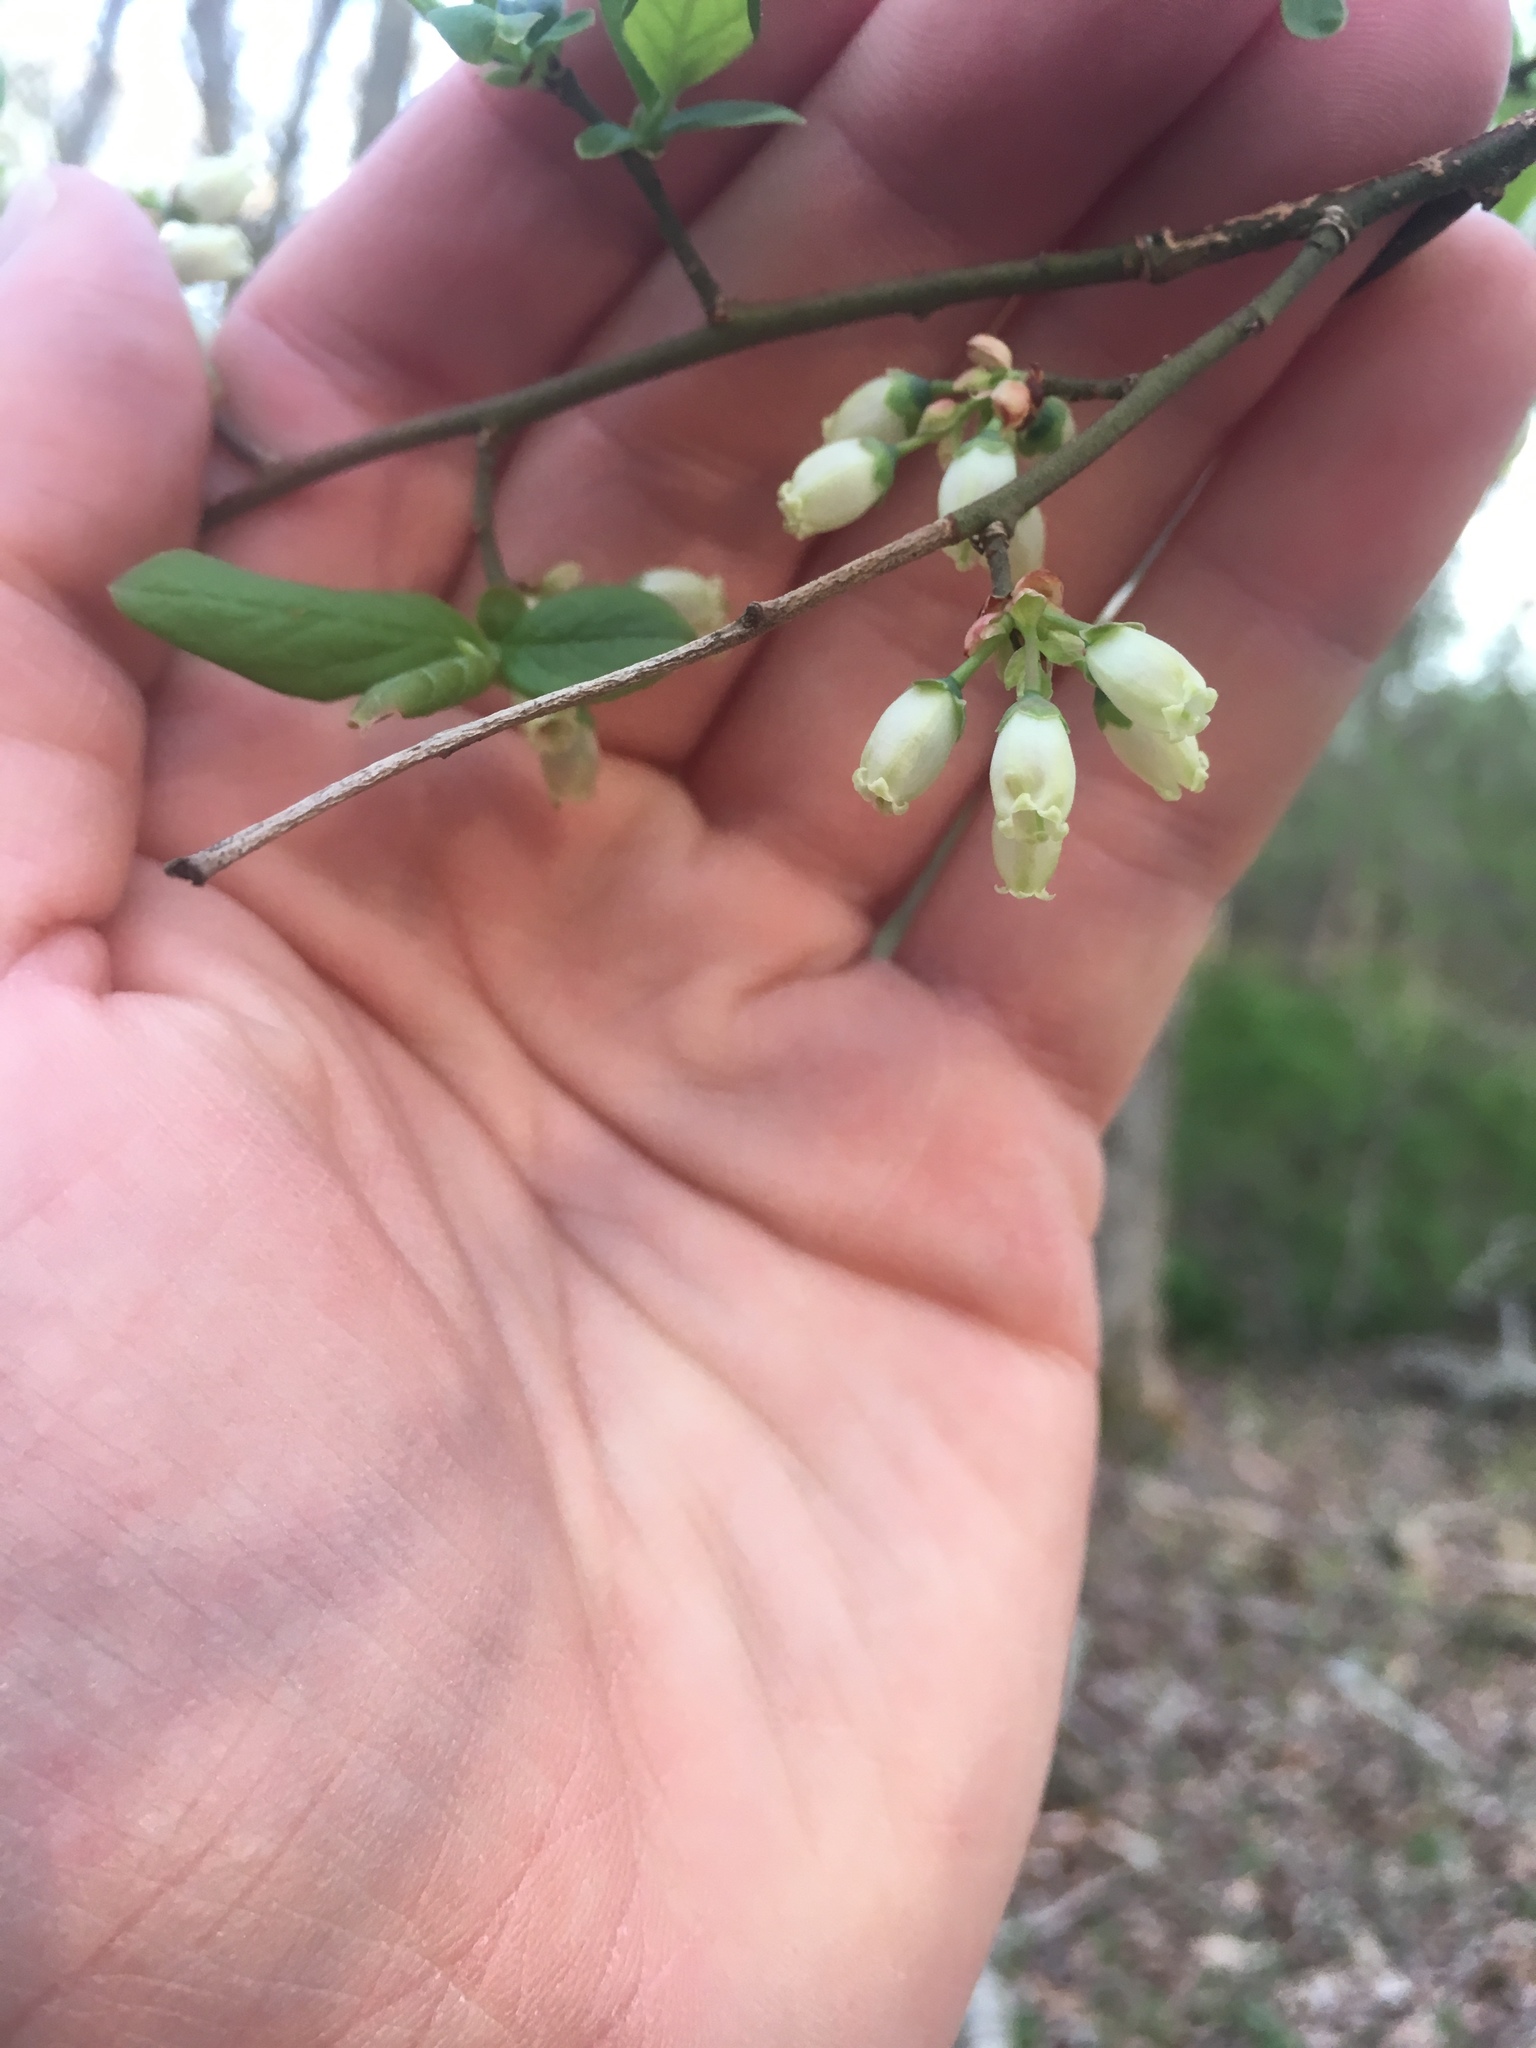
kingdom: Plantae
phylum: Tracheophyta
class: Magnoliopsida
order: Ericales
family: Ericaceae
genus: Vaccinium
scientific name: Vaccinium corymbosum
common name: Blueberry
